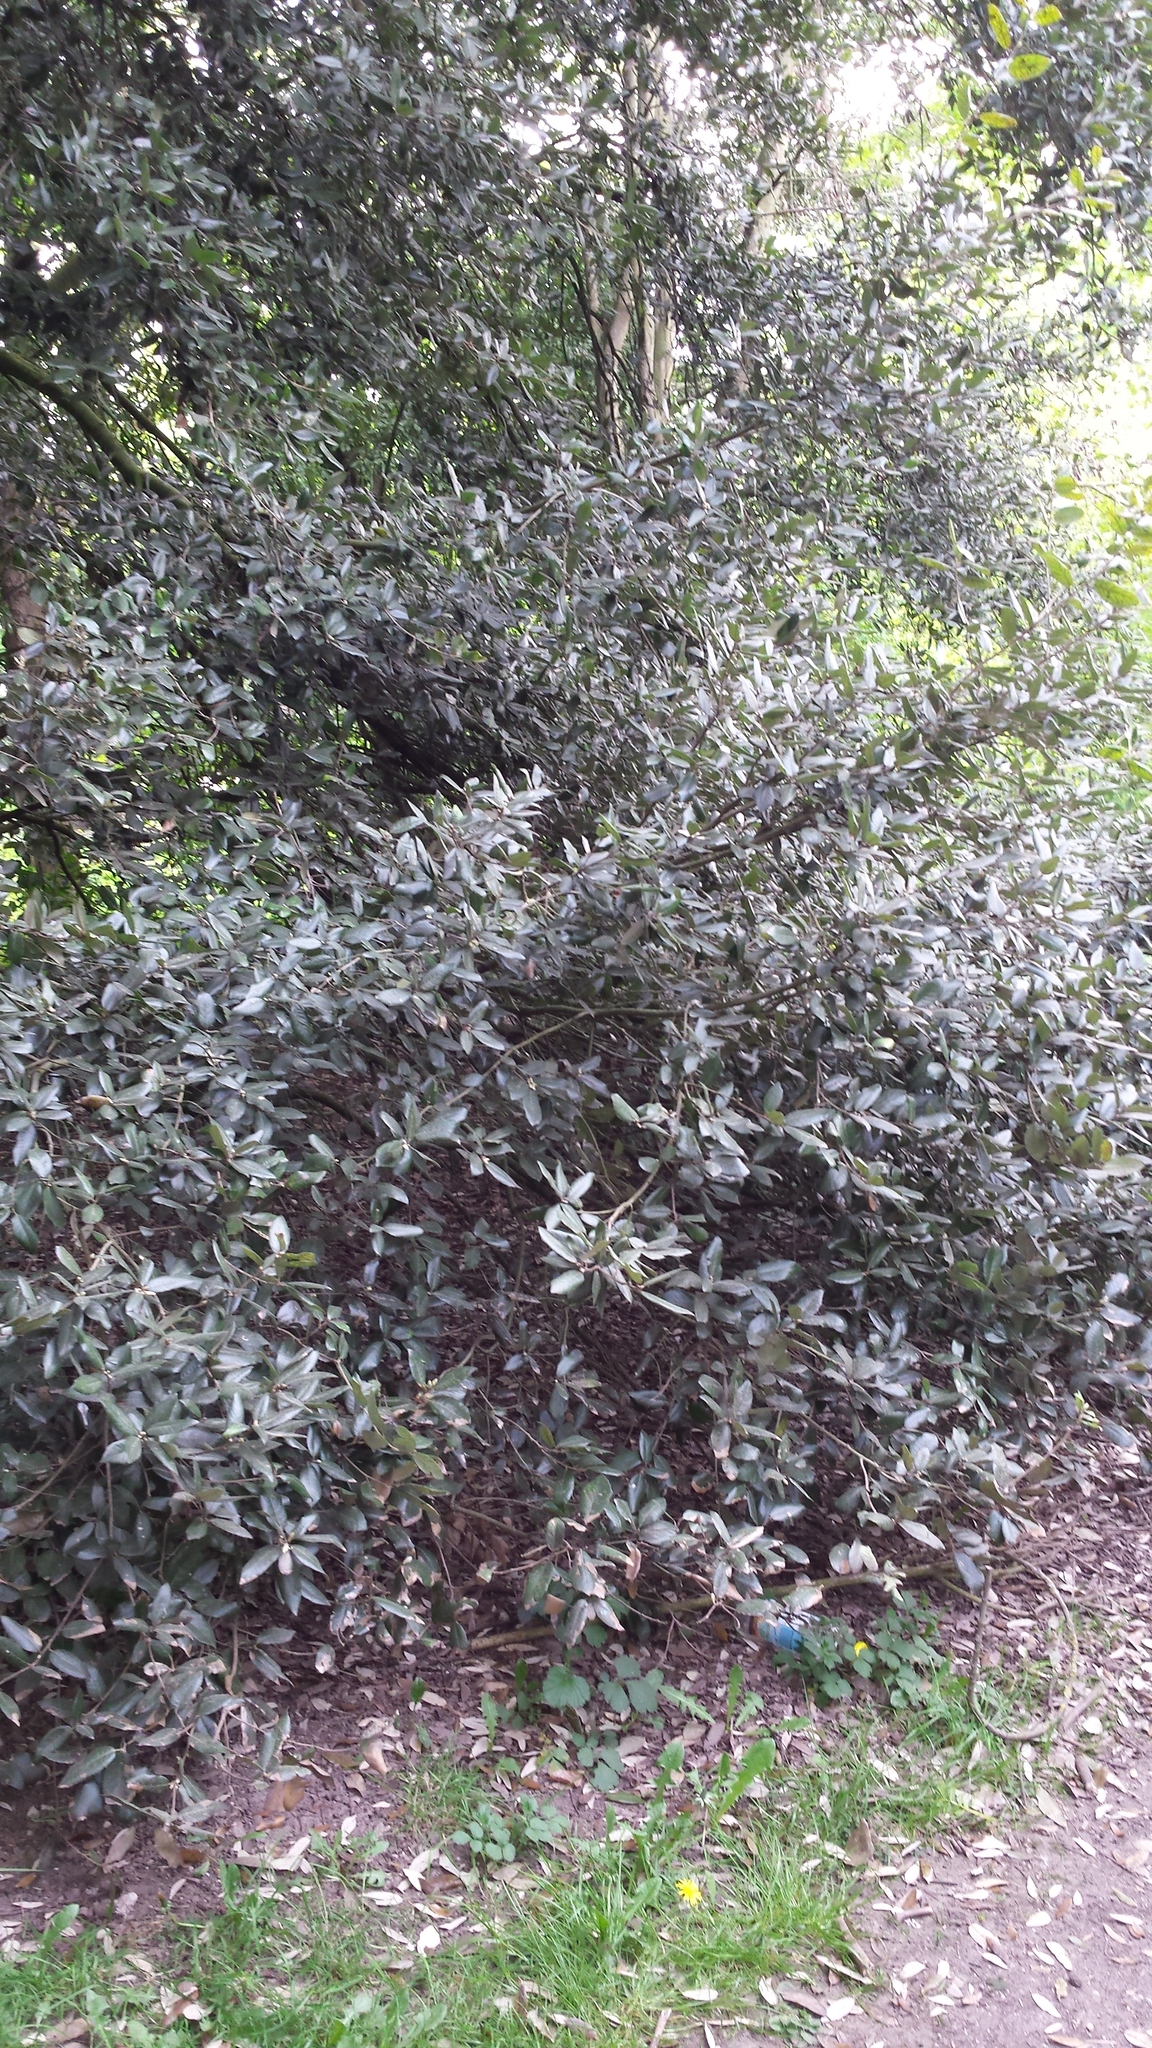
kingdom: Plantae
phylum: Tracheophyta
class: Magnoliopsida
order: Laurales
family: Lauraceae
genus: Laurus
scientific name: Laurus nobilis
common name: Bay
